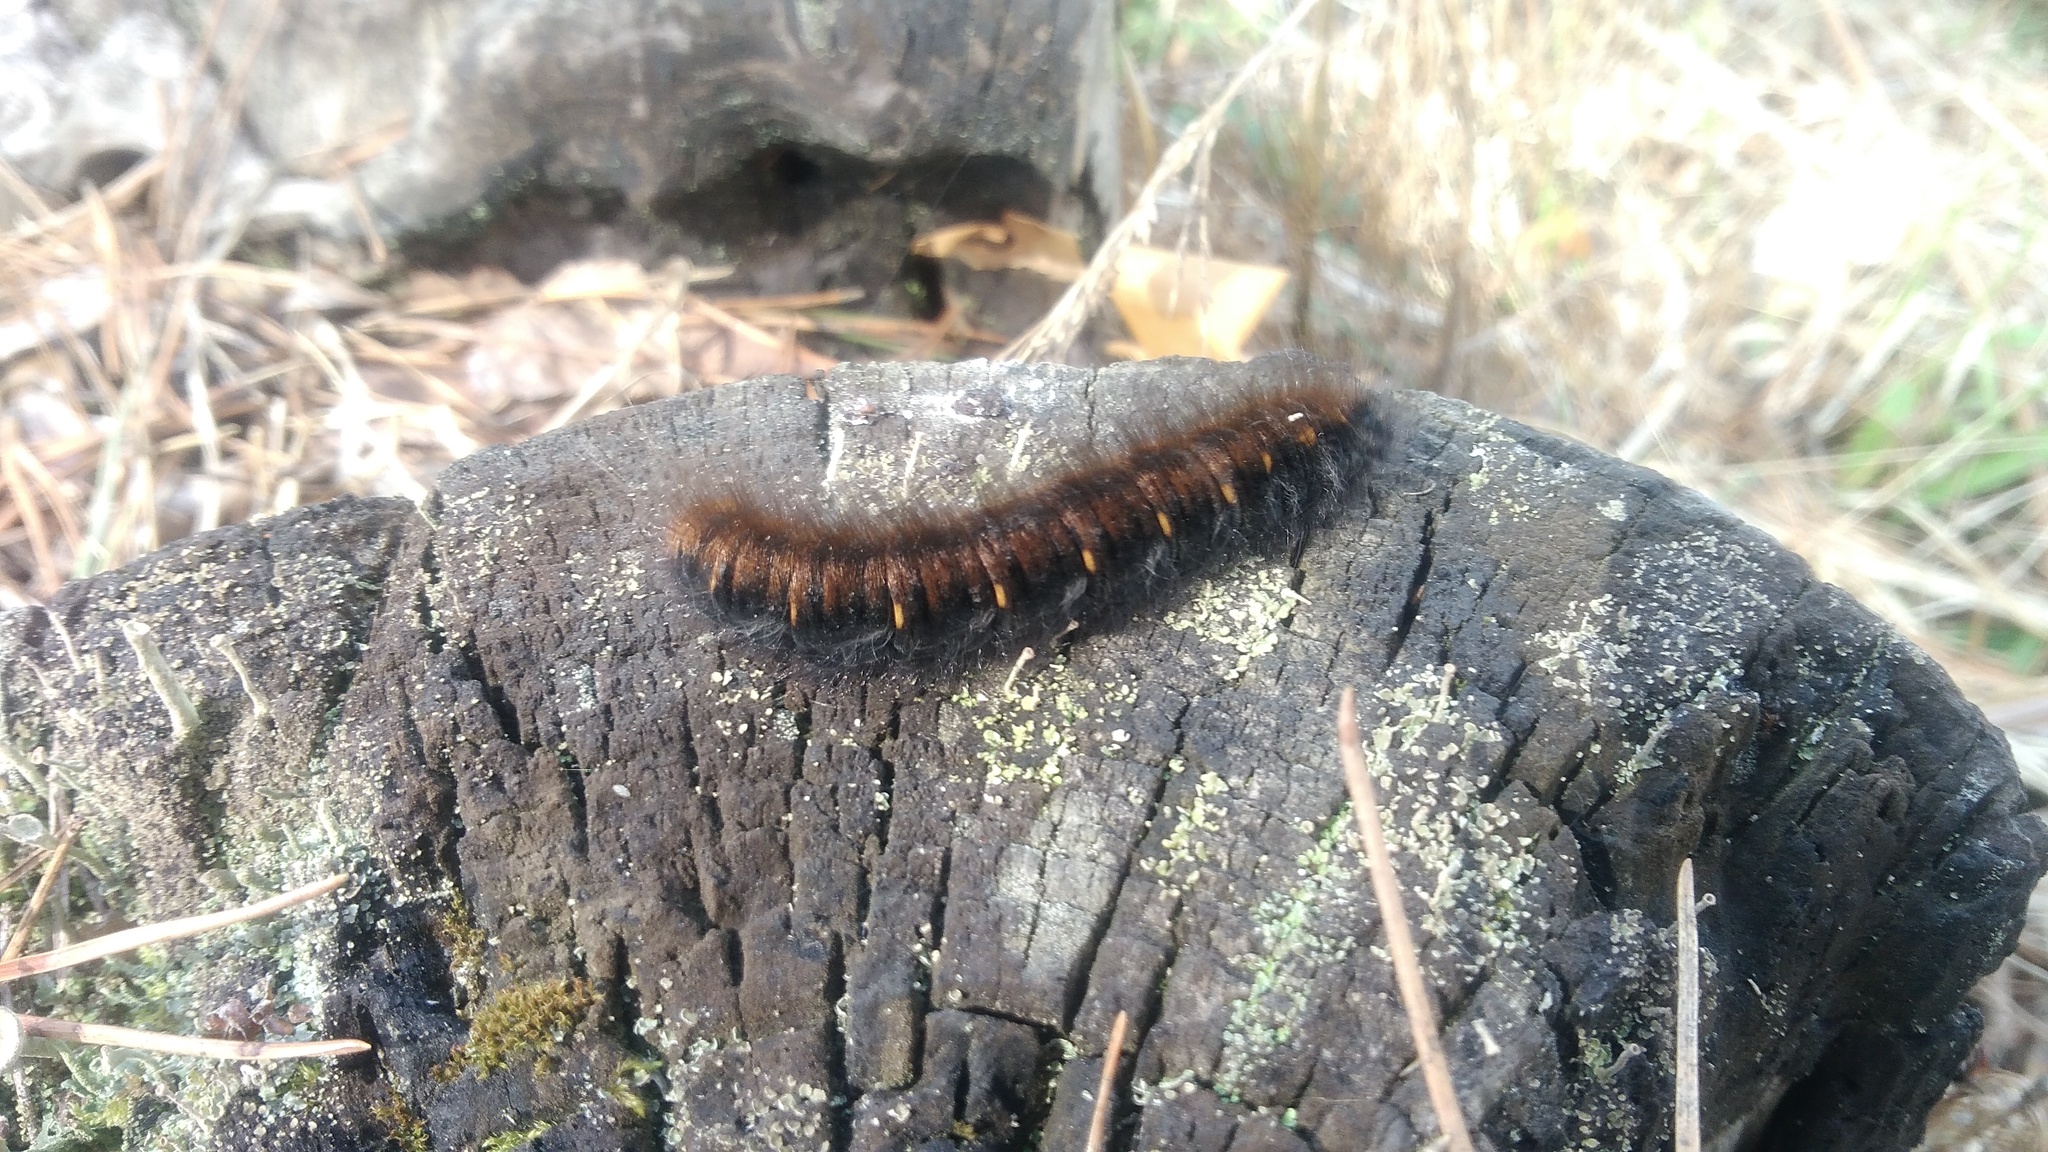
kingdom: Animalia
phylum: Arthropoda
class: Insecta
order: Lepidoptera
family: Lasiocampidae
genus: Macrothylacia
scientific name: Macrothylacia rubi
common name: Fox moth
